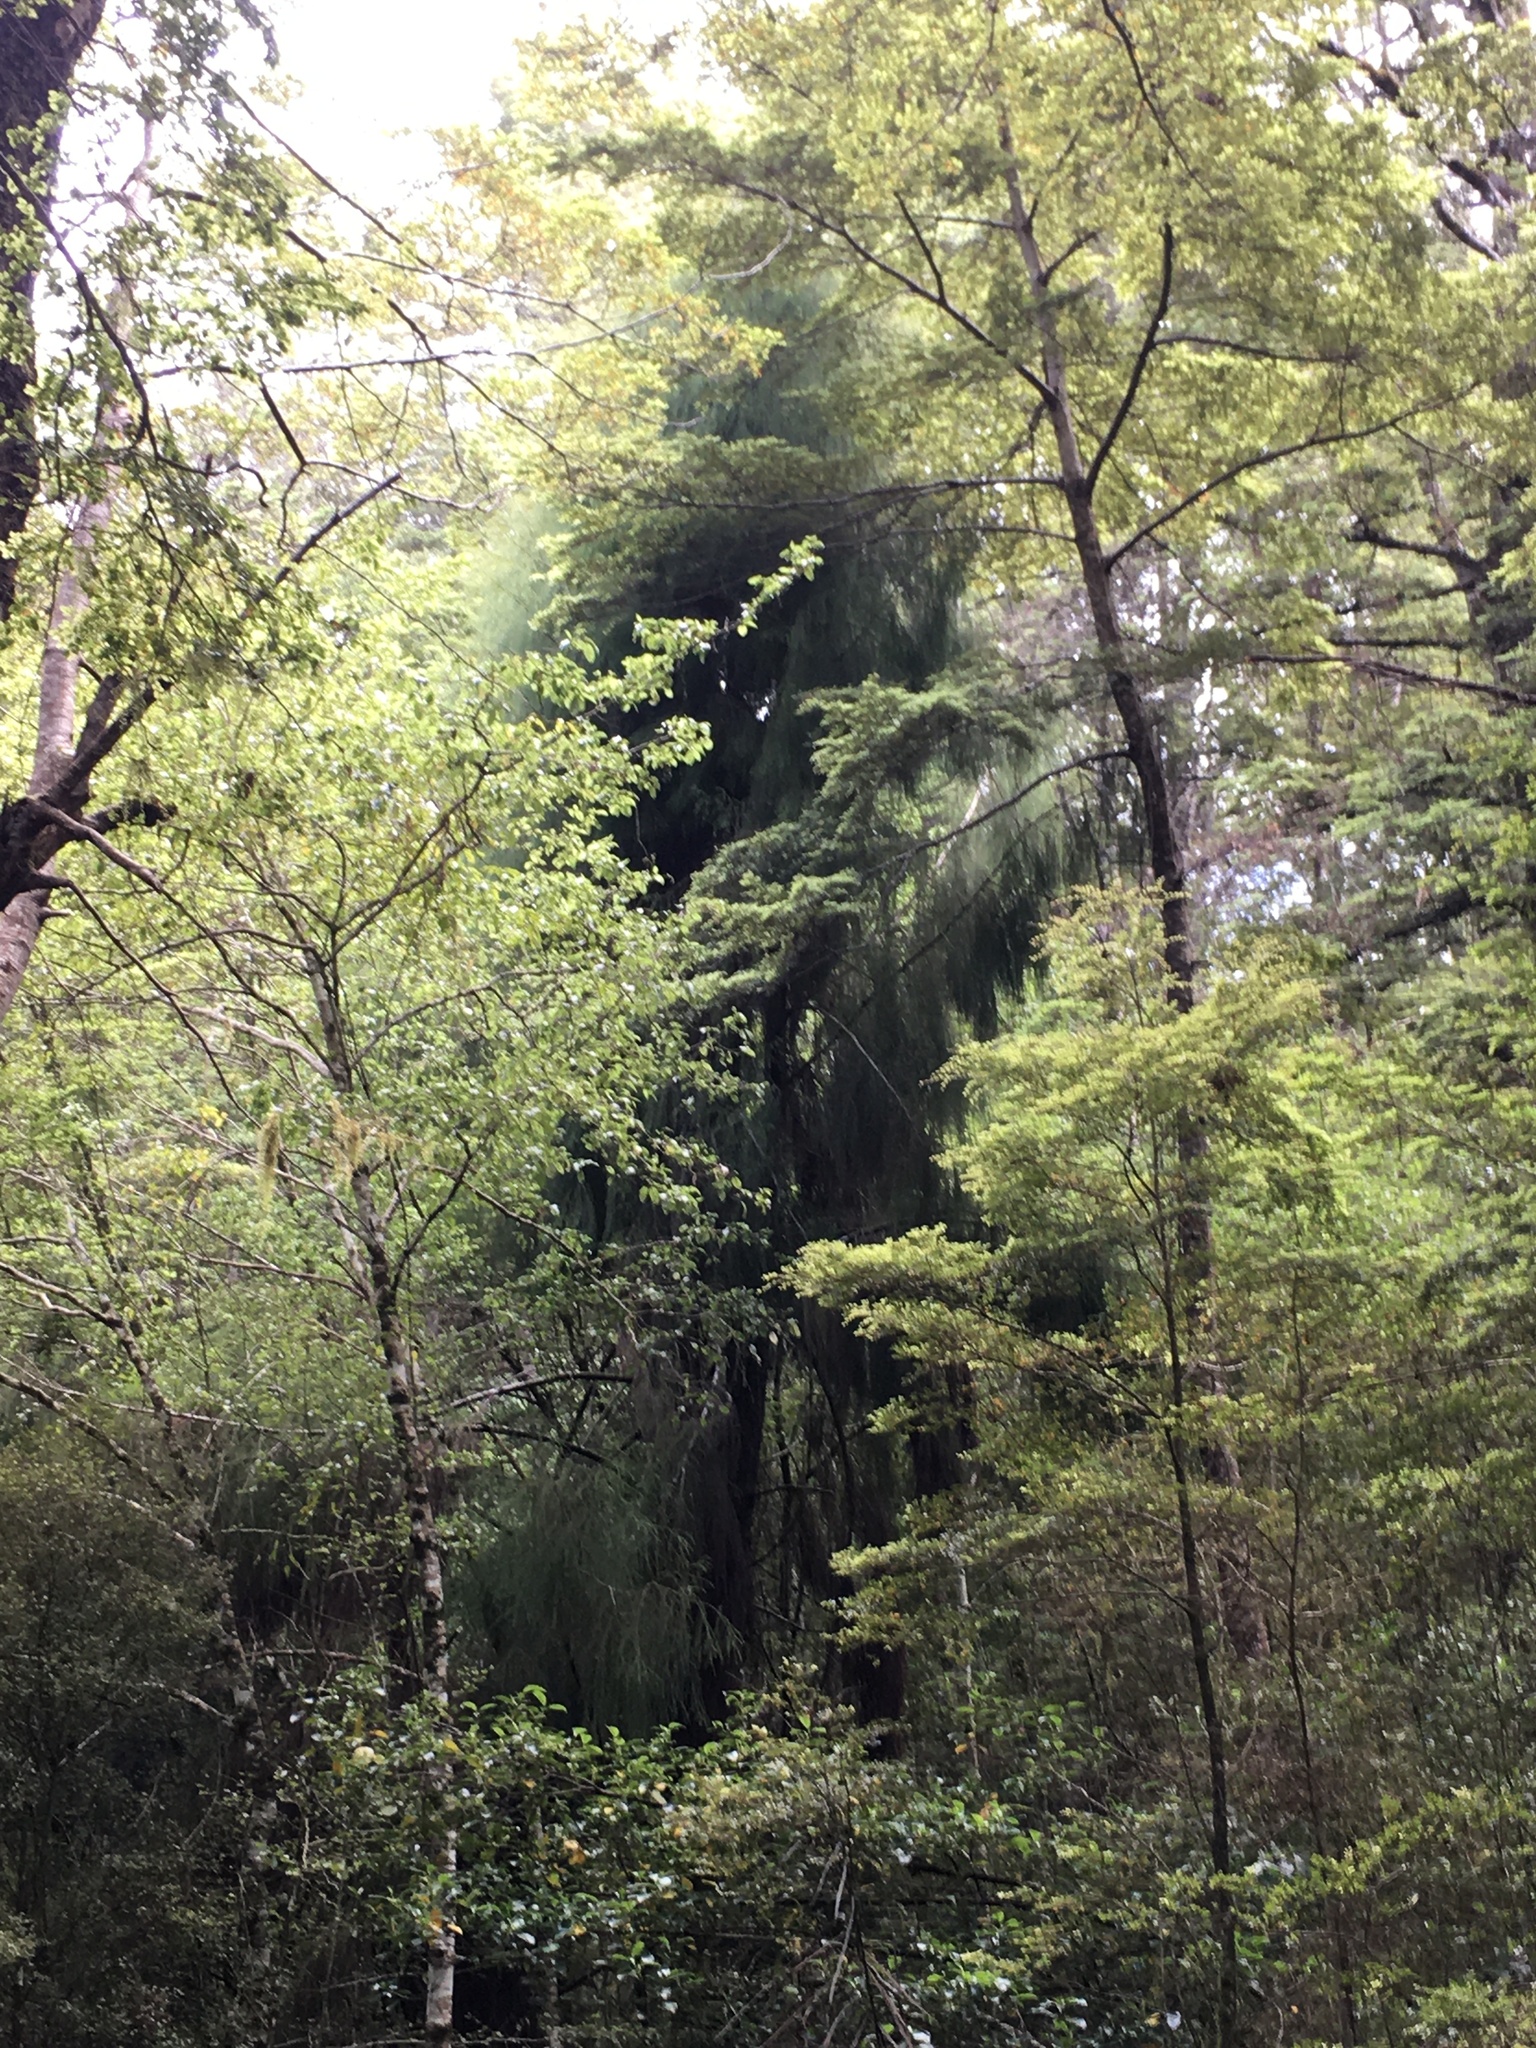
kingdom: Plantae
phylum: Tracheophyta
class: Pinopsida
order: Pinales
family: Podocarpaceae
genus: Dacrydium
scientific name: Dacrydium cupressinum
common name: Red pine
